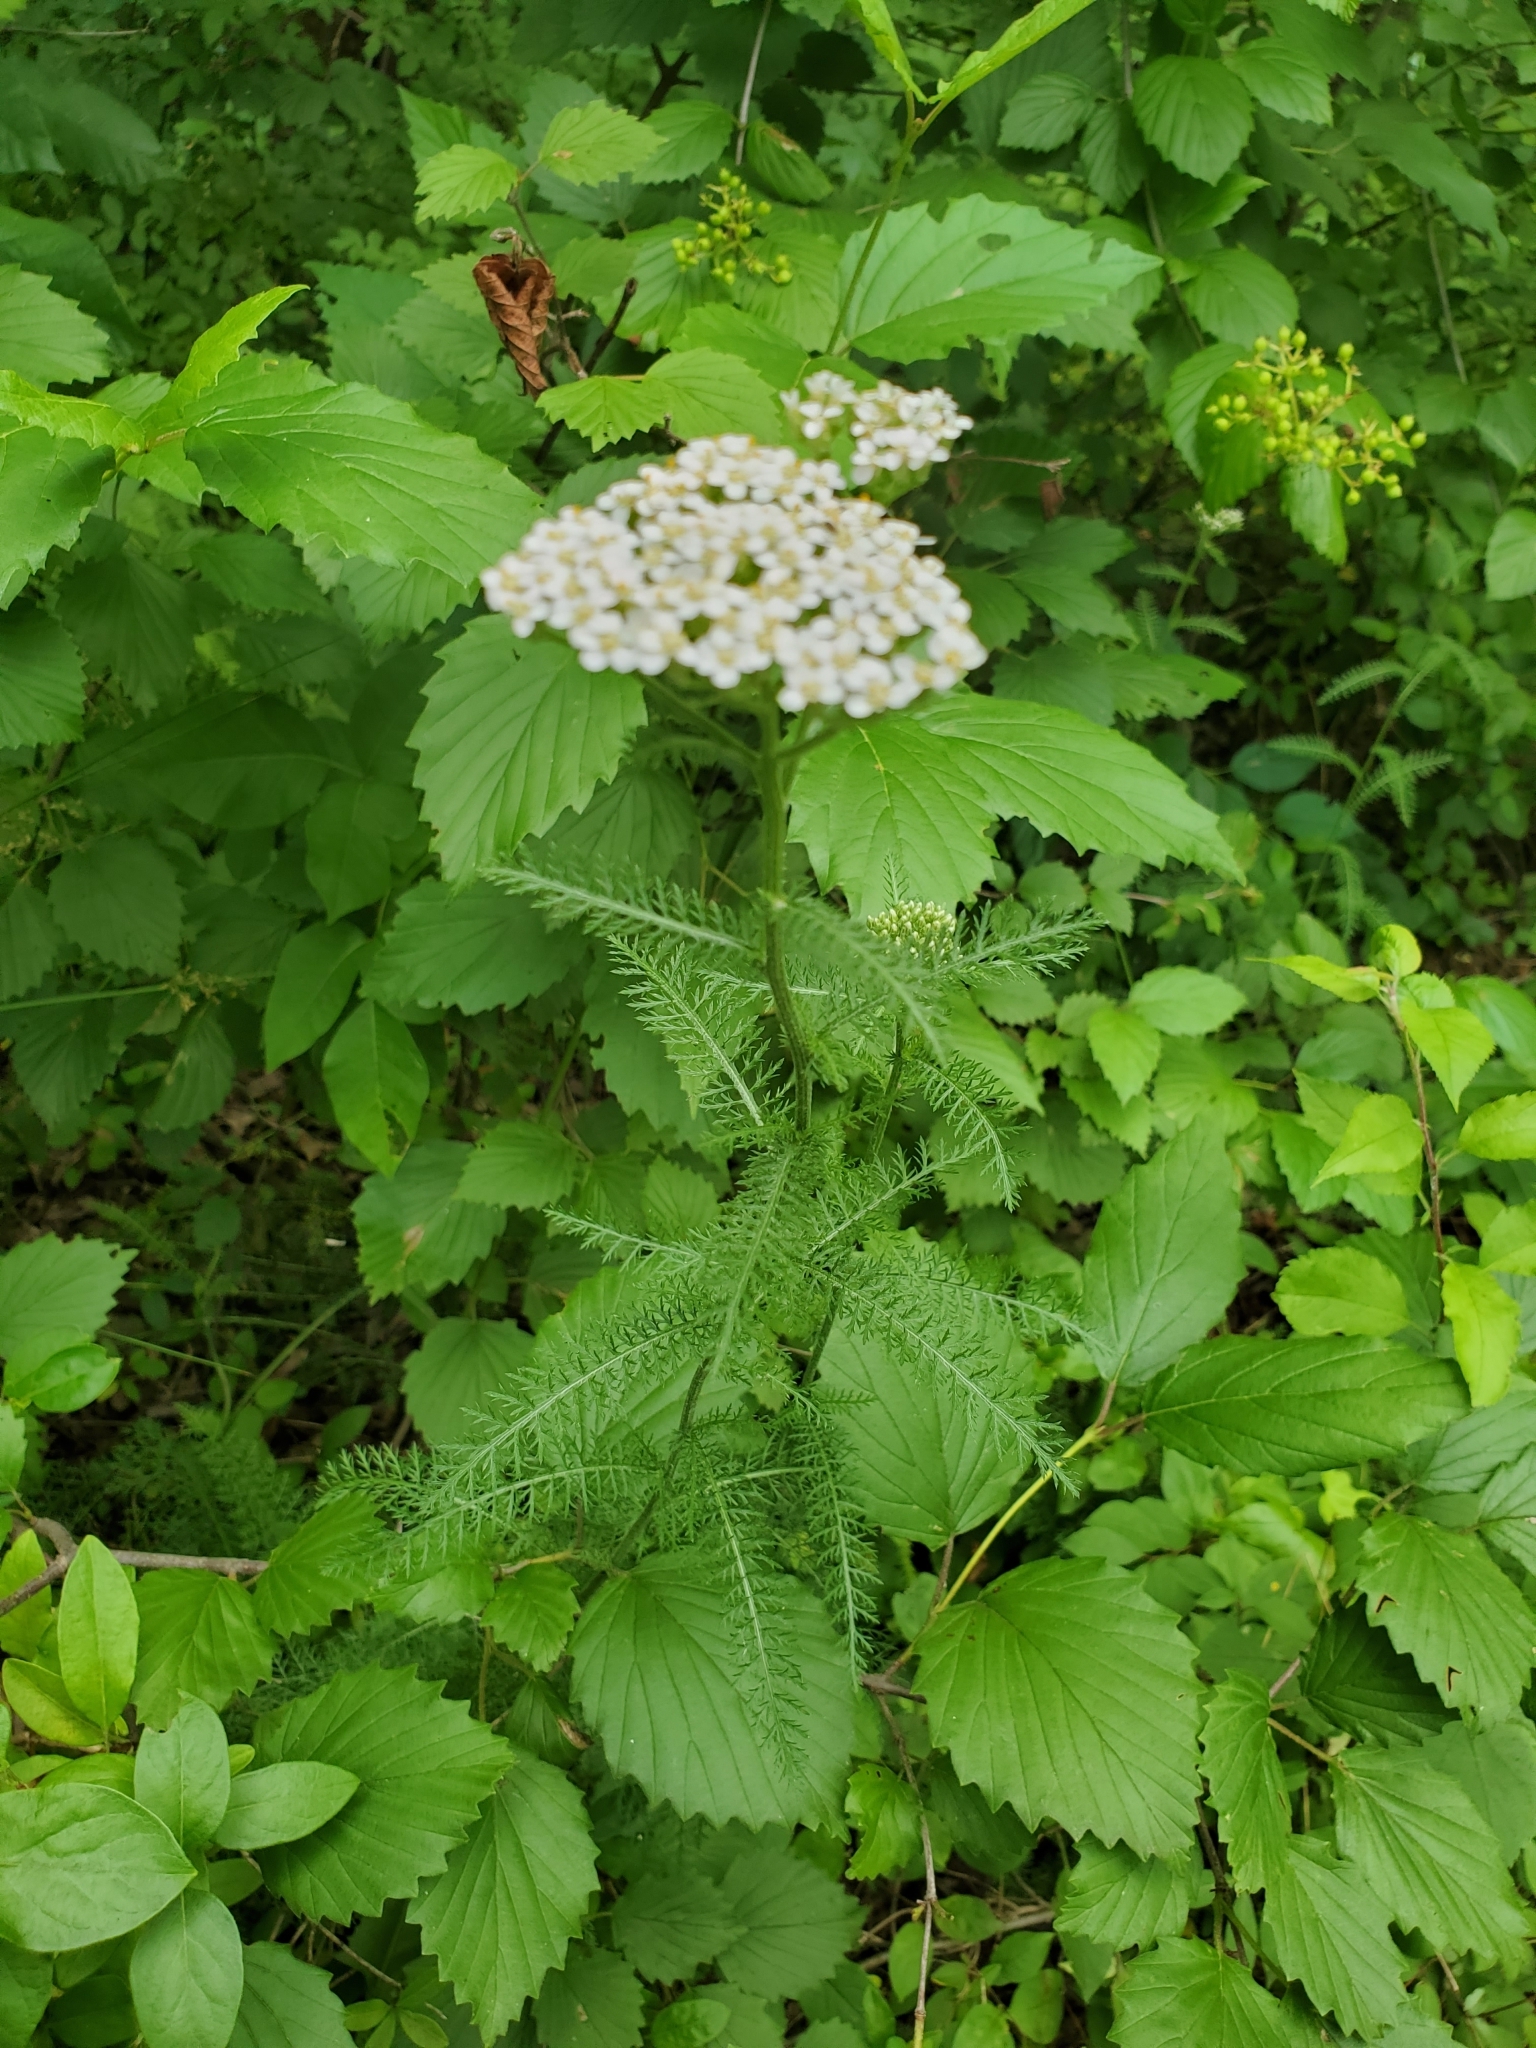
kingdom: Plantae
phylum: Tracheophyta
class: Magnoliopsida
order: Asterales
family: Asteraceae
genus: Achillea
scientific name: Achillea millefolium
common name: Yarrow
